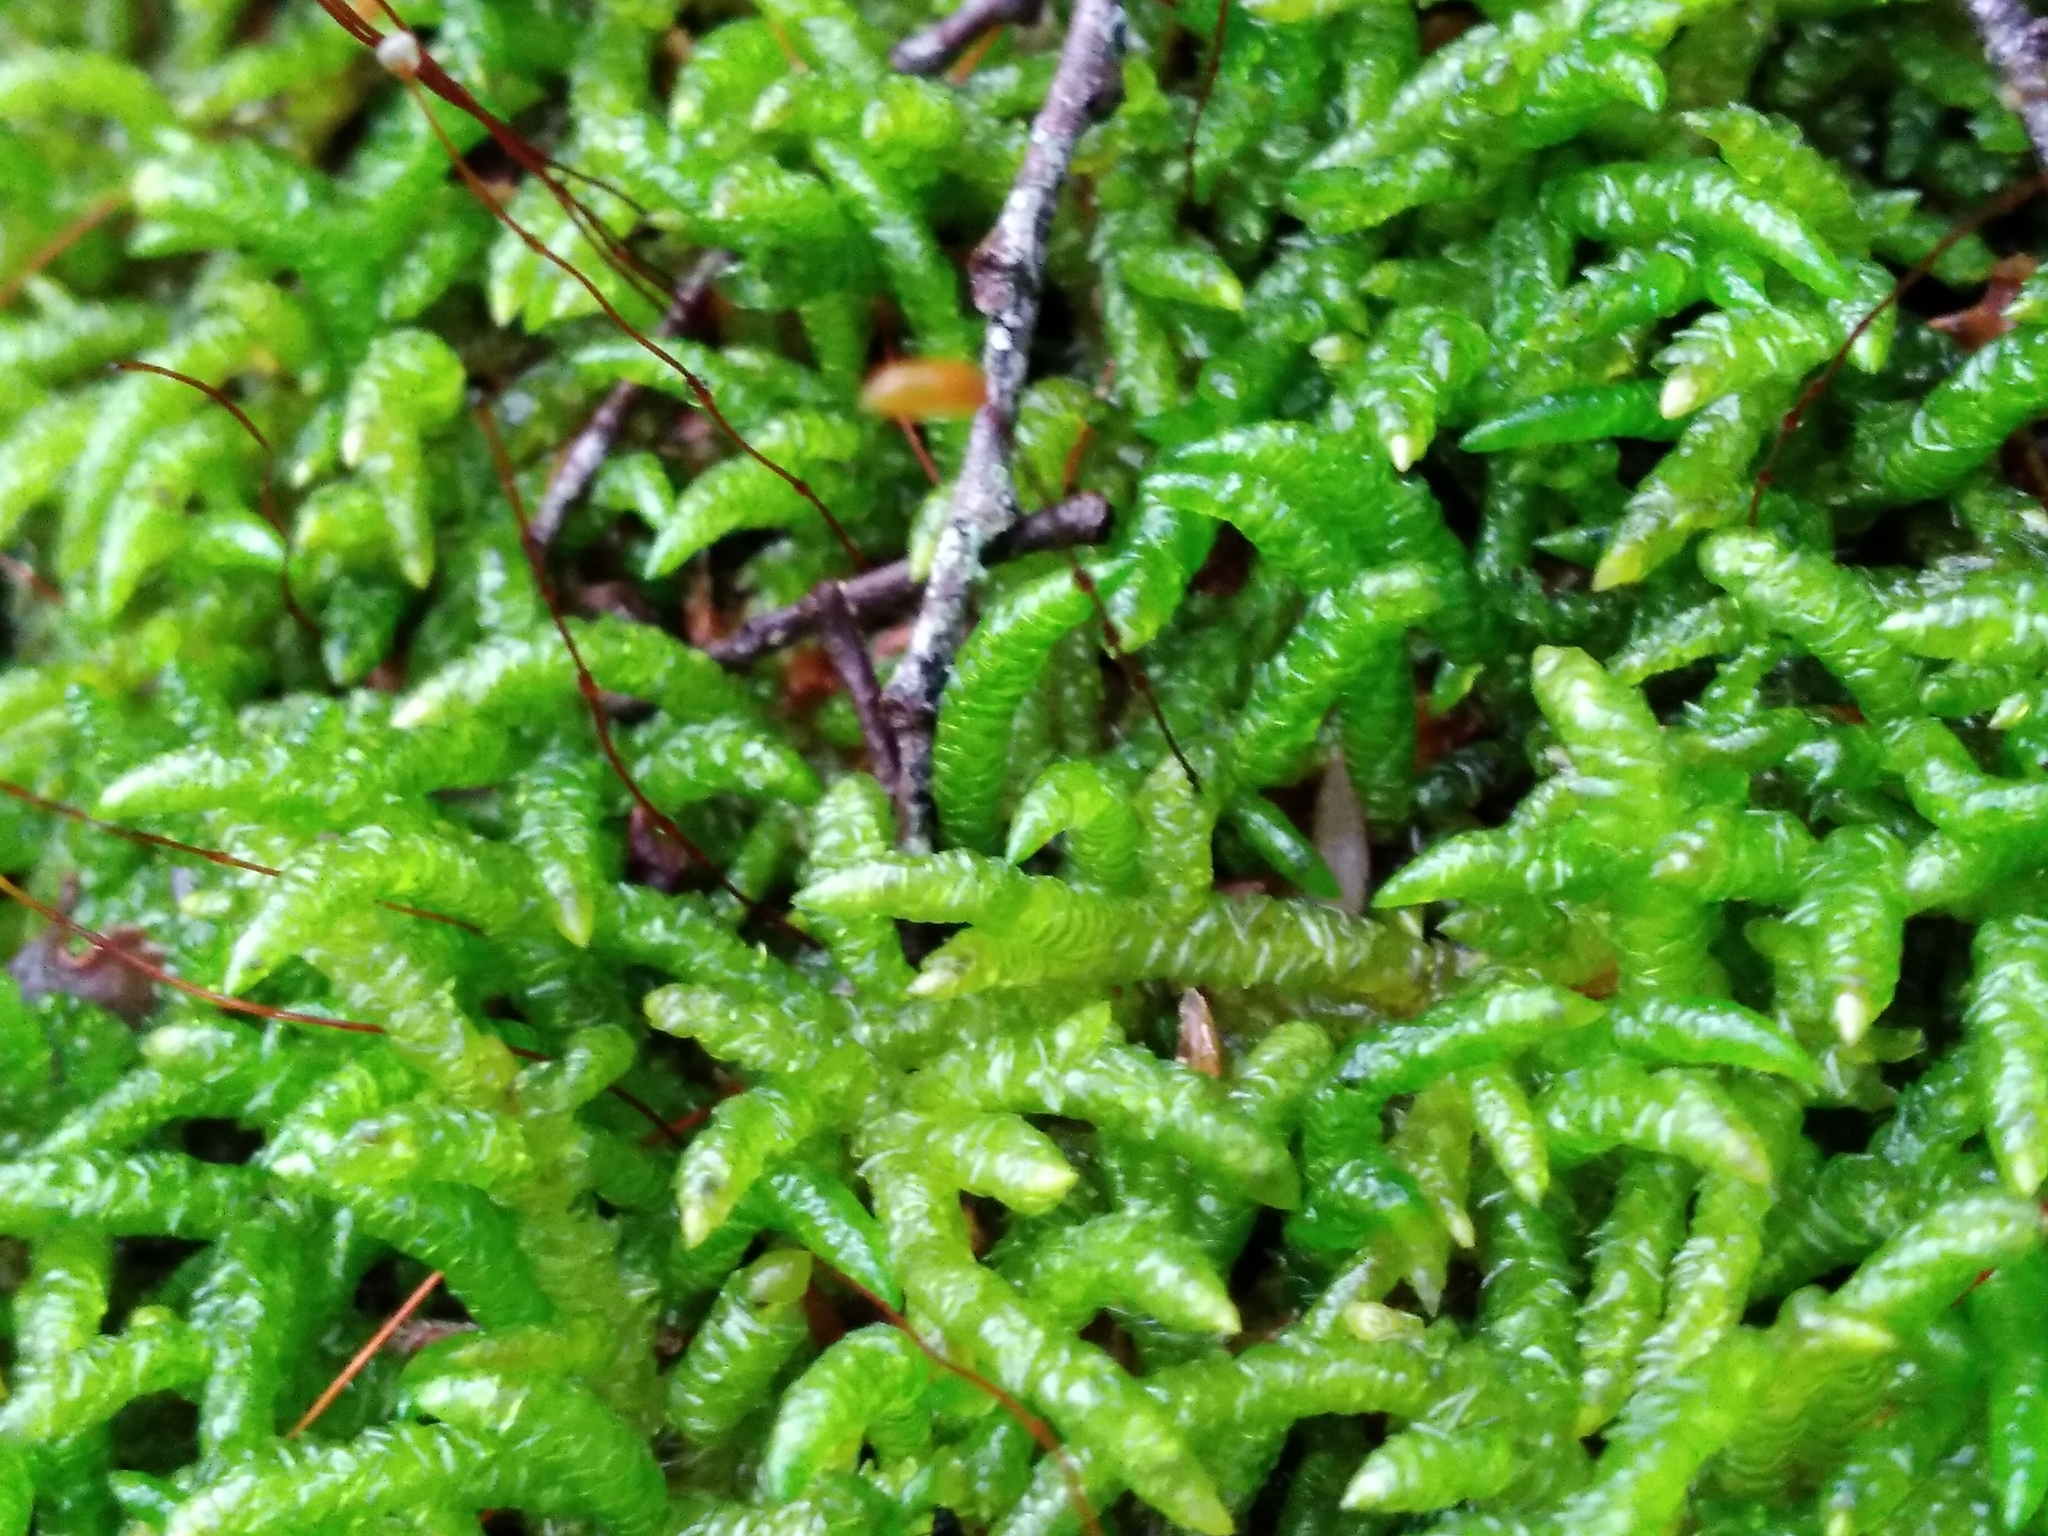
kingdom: Plantae
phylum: Bryophyta
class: Bryopsida
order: Hypnales
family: Acrocladiaceae
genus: Acrocladium
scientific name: Acrocladium chlamydophyllum
